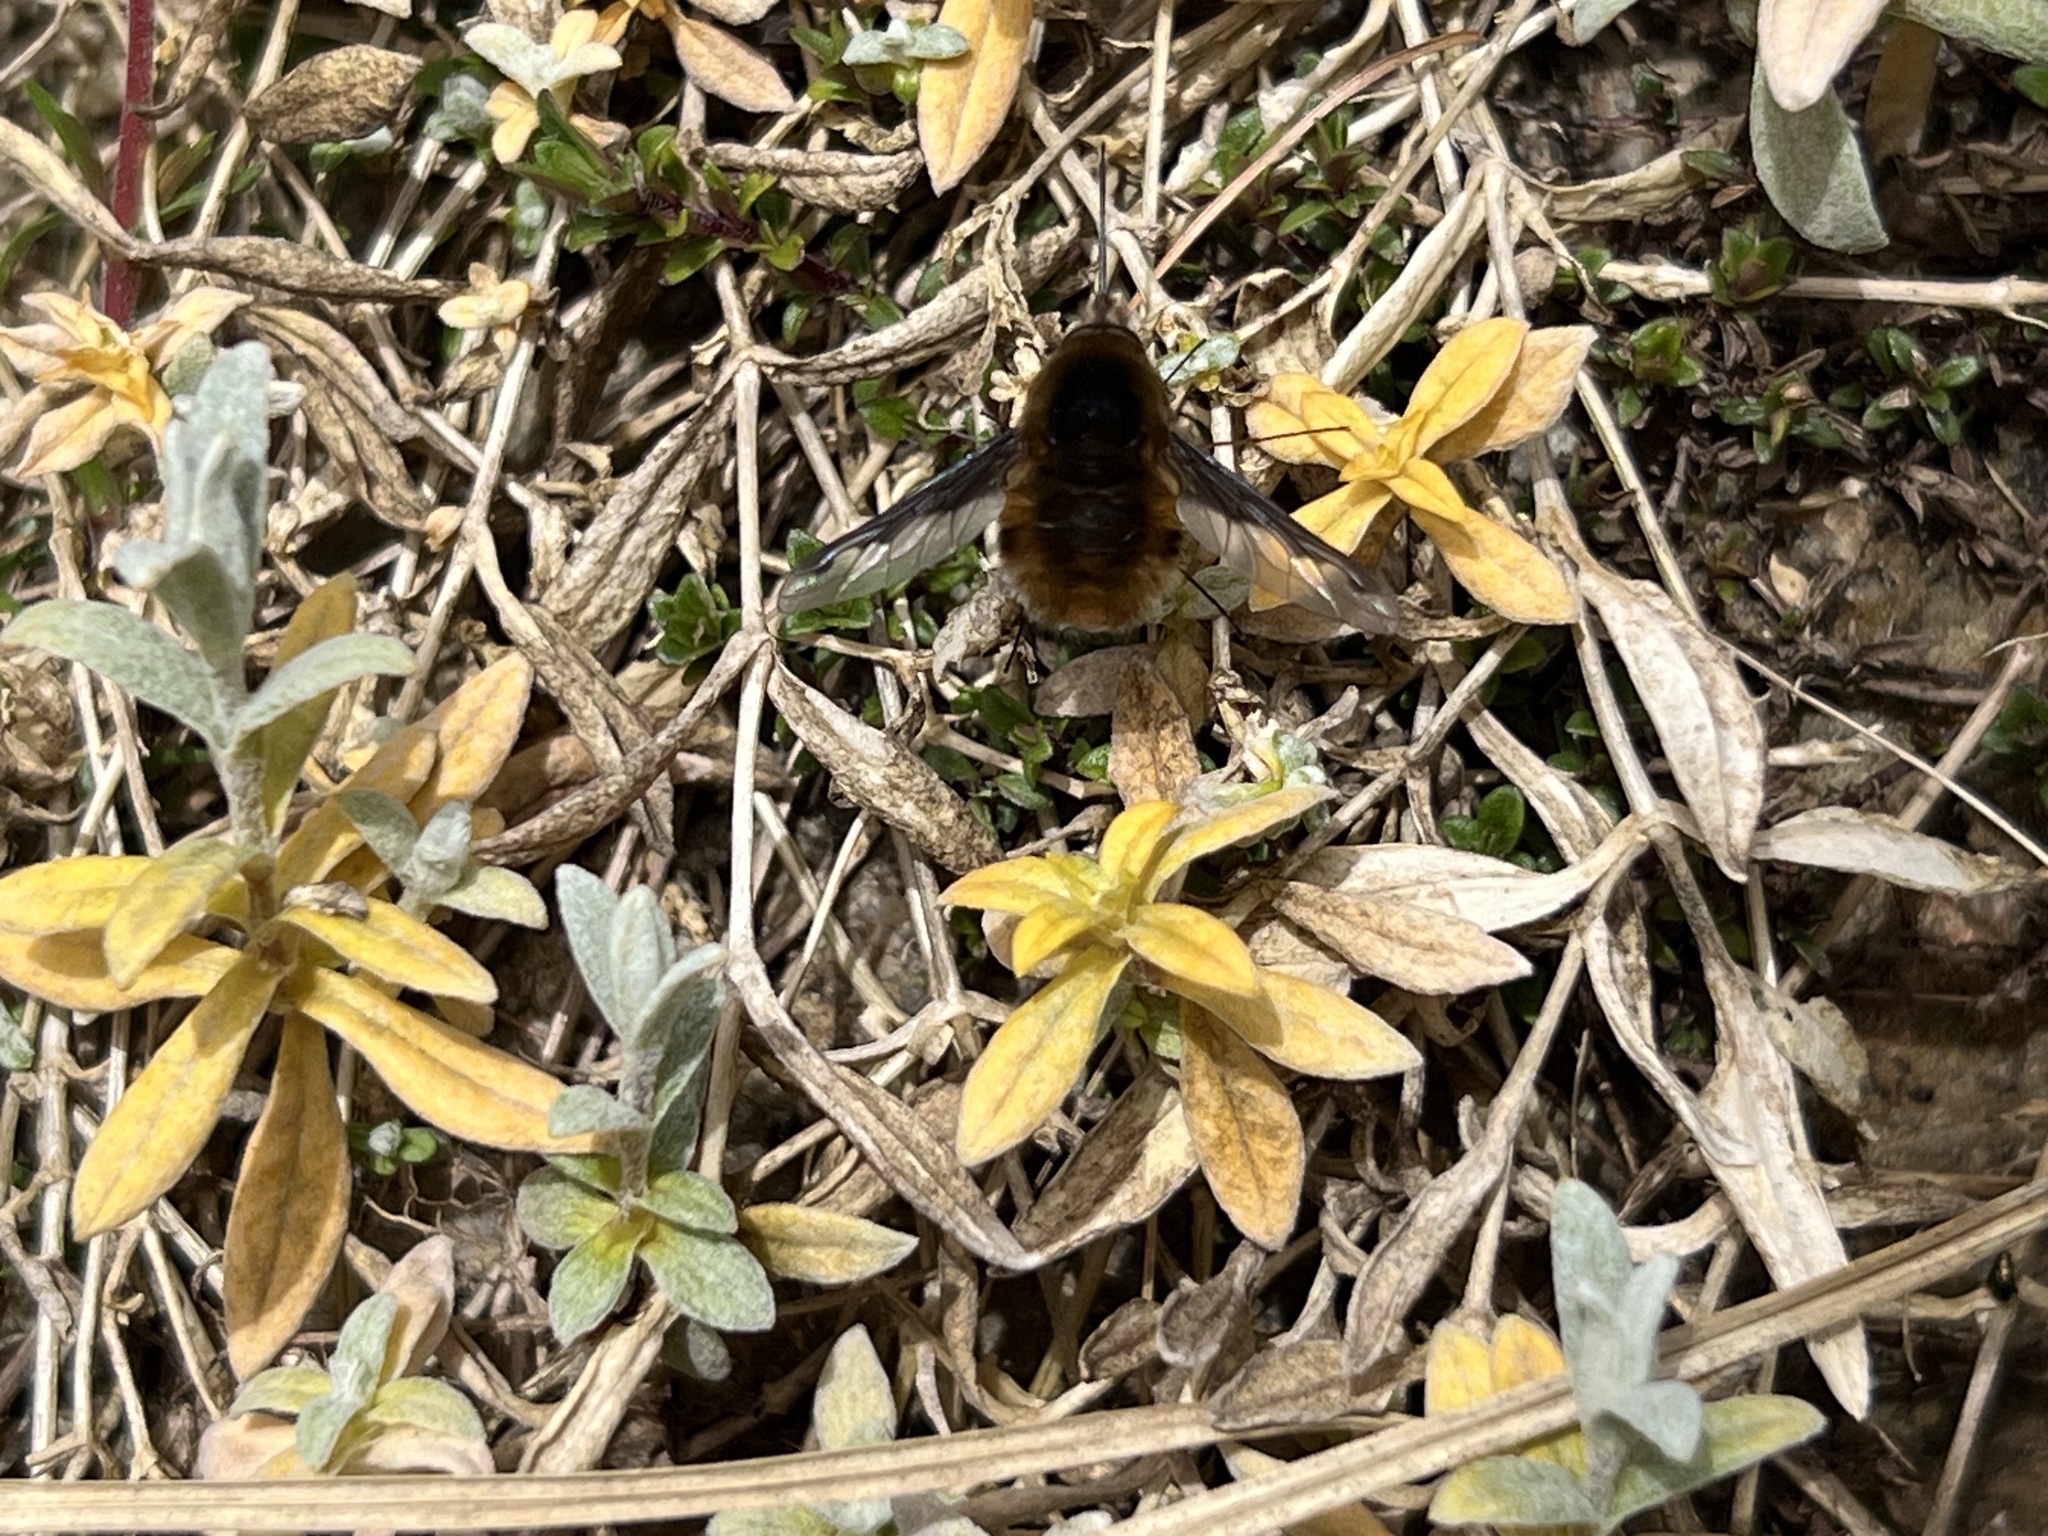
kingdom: Animalia
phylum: Arthropoda
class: Insecta
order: Diptera
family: Bombyliidae
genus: Bombylius
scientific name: Bombylius major
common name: Bee fly
